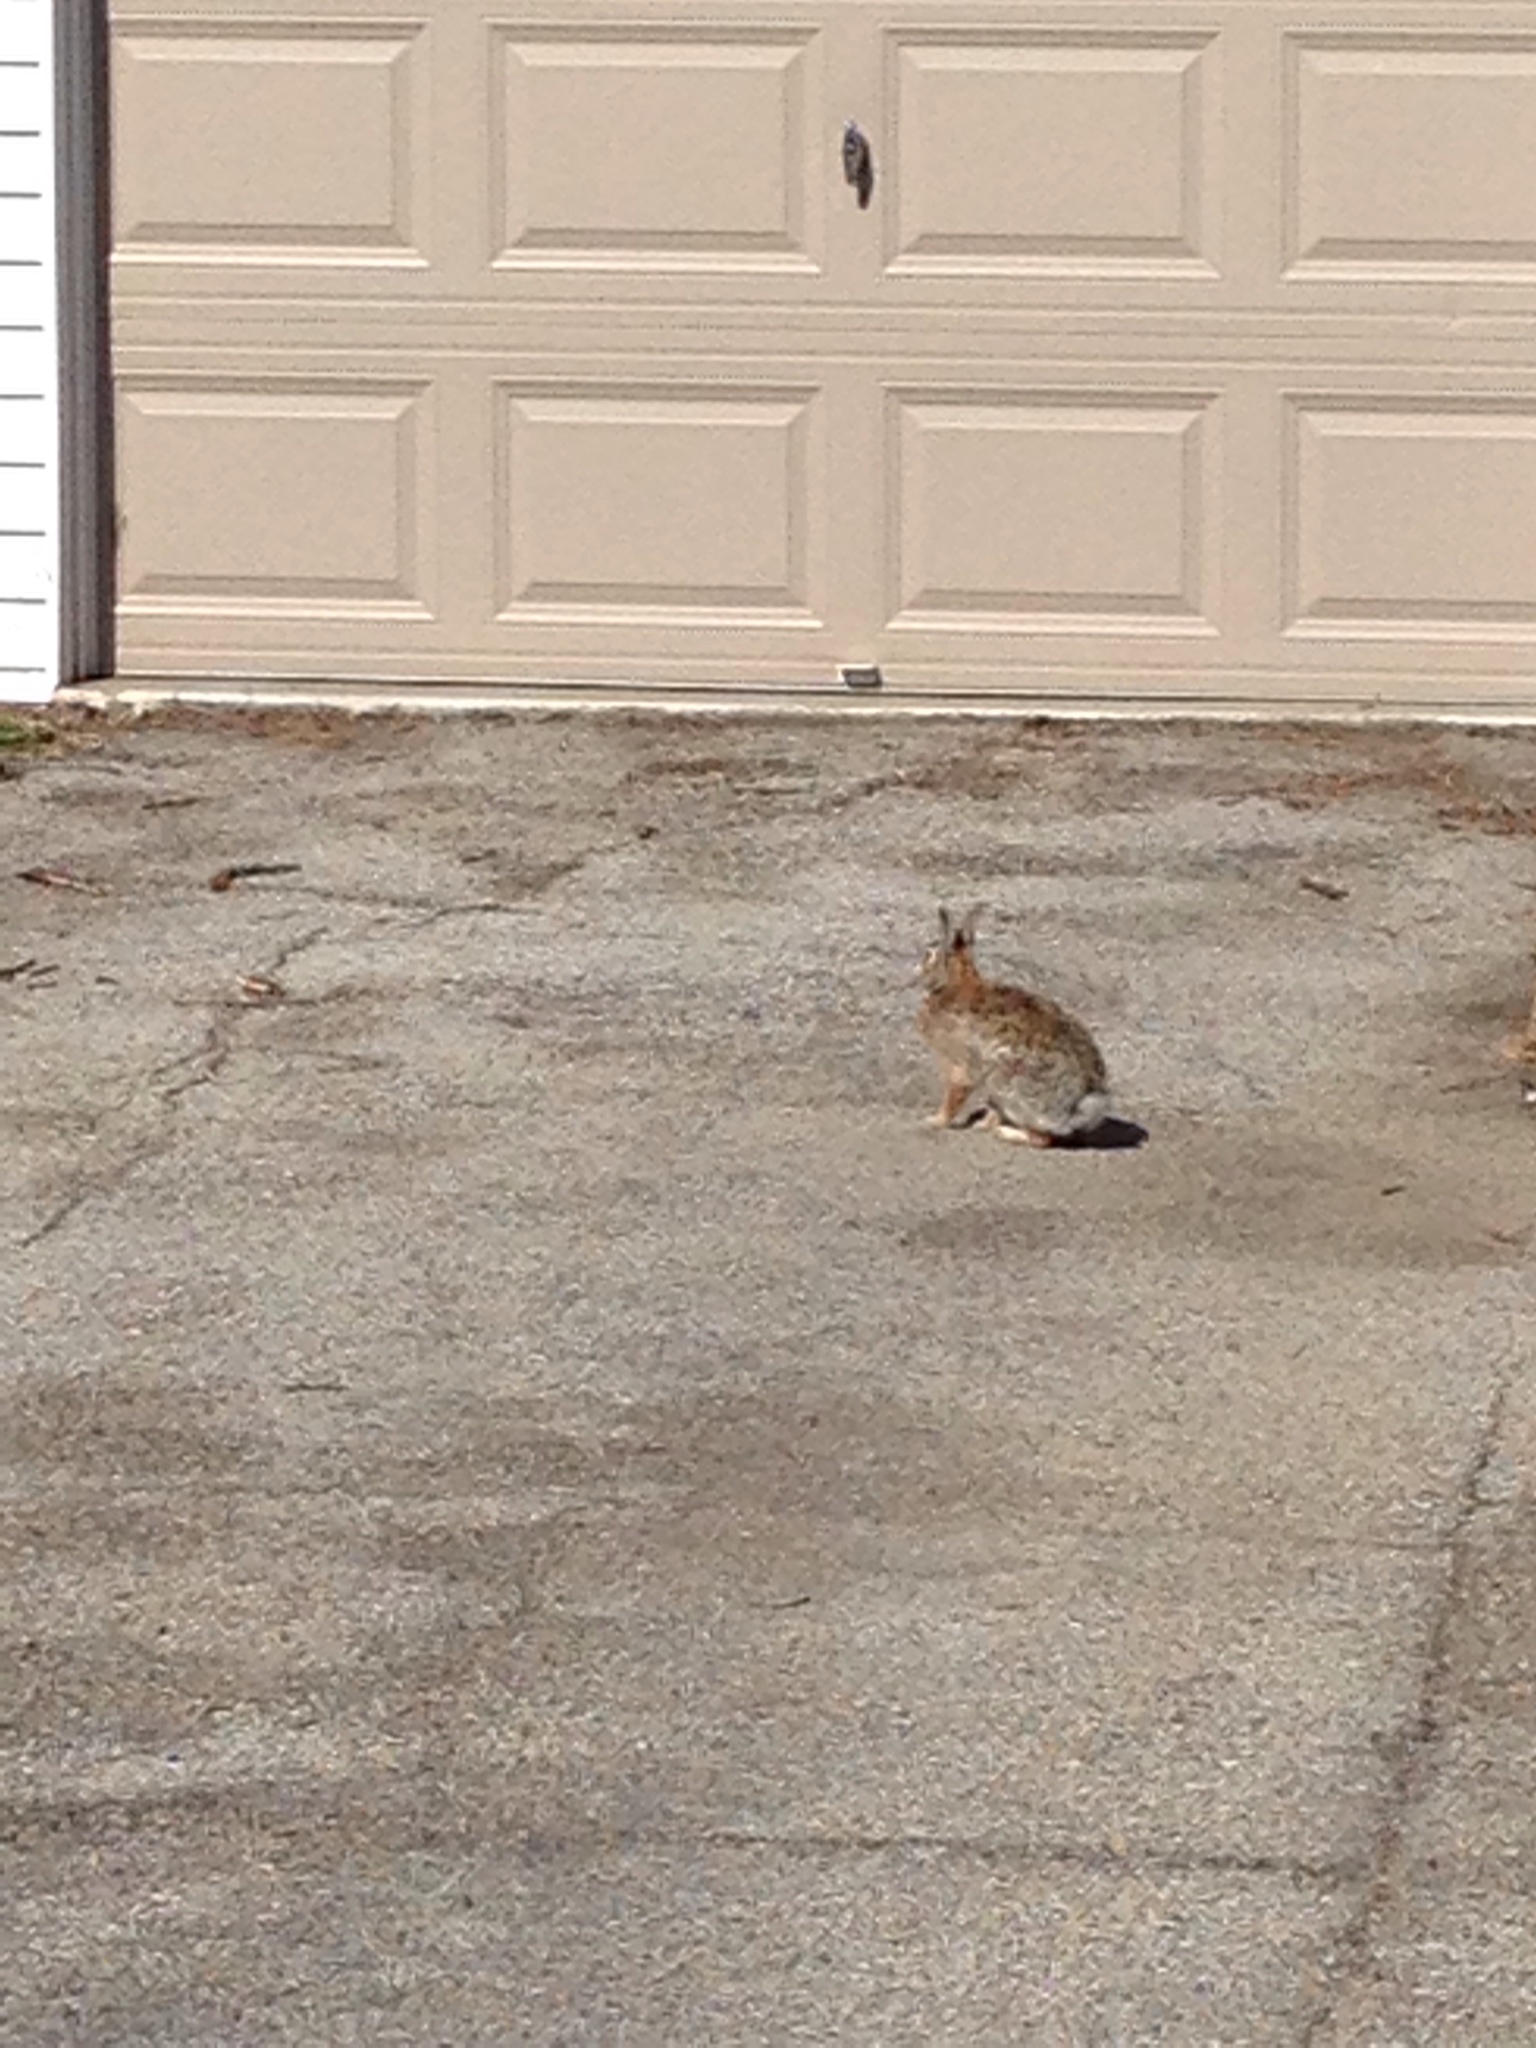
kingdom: Animalia
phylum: Chordata
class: Mammalia
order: Lagomorpha
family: Leporidae
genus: Sylvilagus
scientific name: Sylvilagus floridanus
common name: Eastern cottontail
